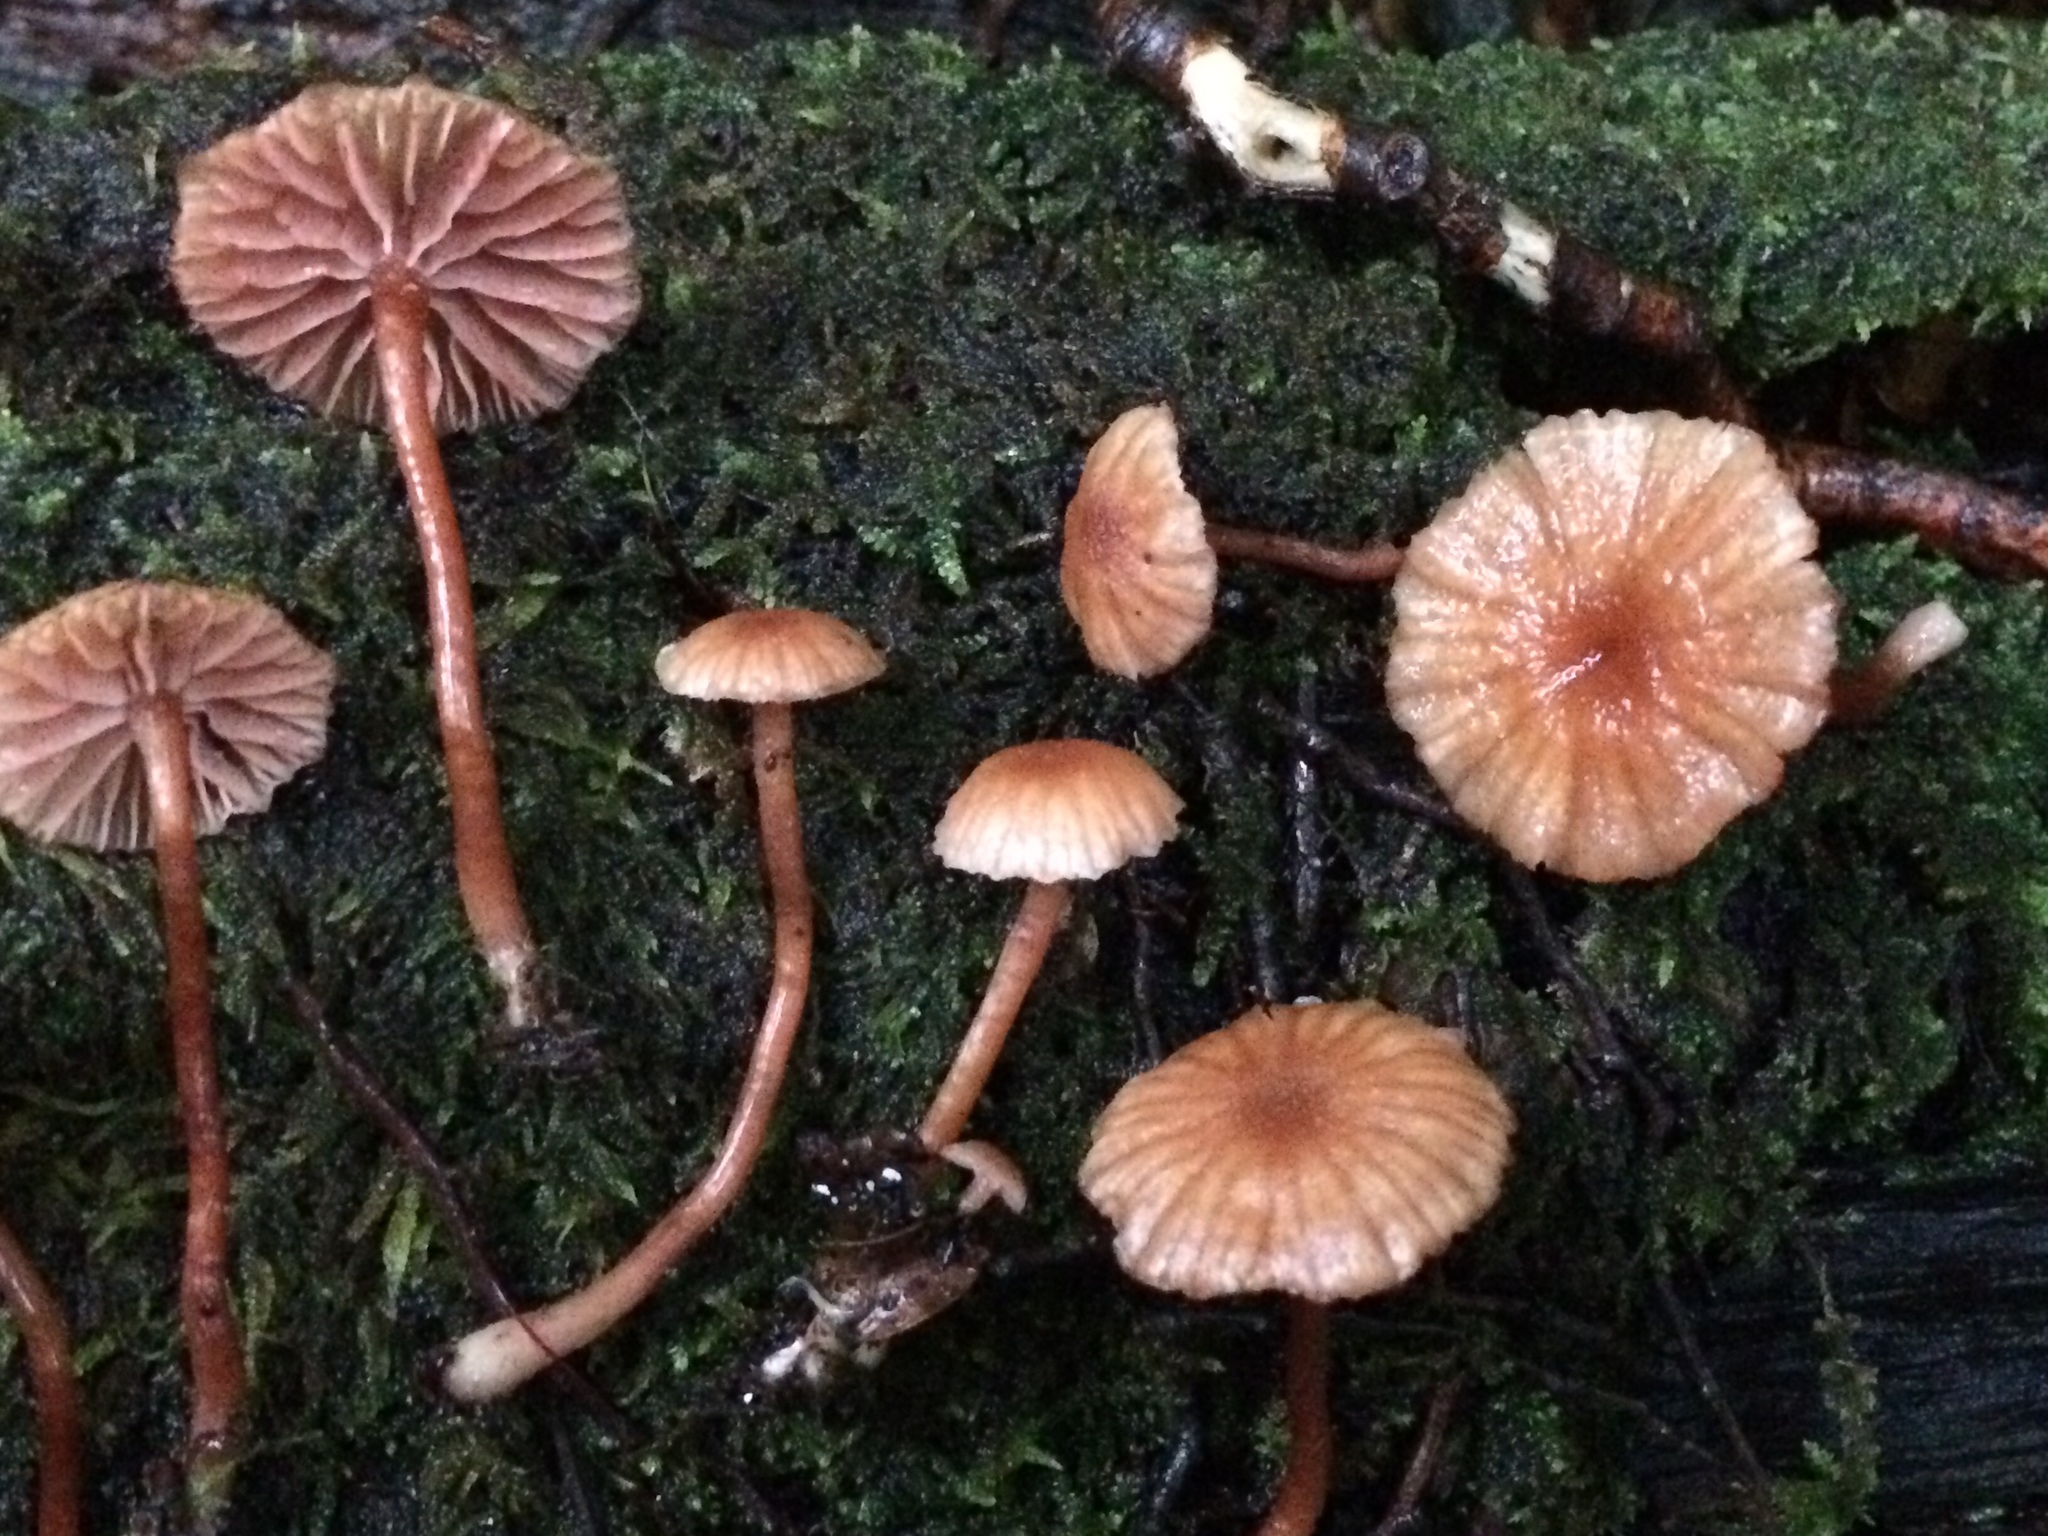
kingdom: Fungi
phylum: Basidiomycota
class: Agaricomycetes
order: Agaricales
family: Hydnangiaceae
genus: Laccaria
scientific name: Laccaria glabripes
